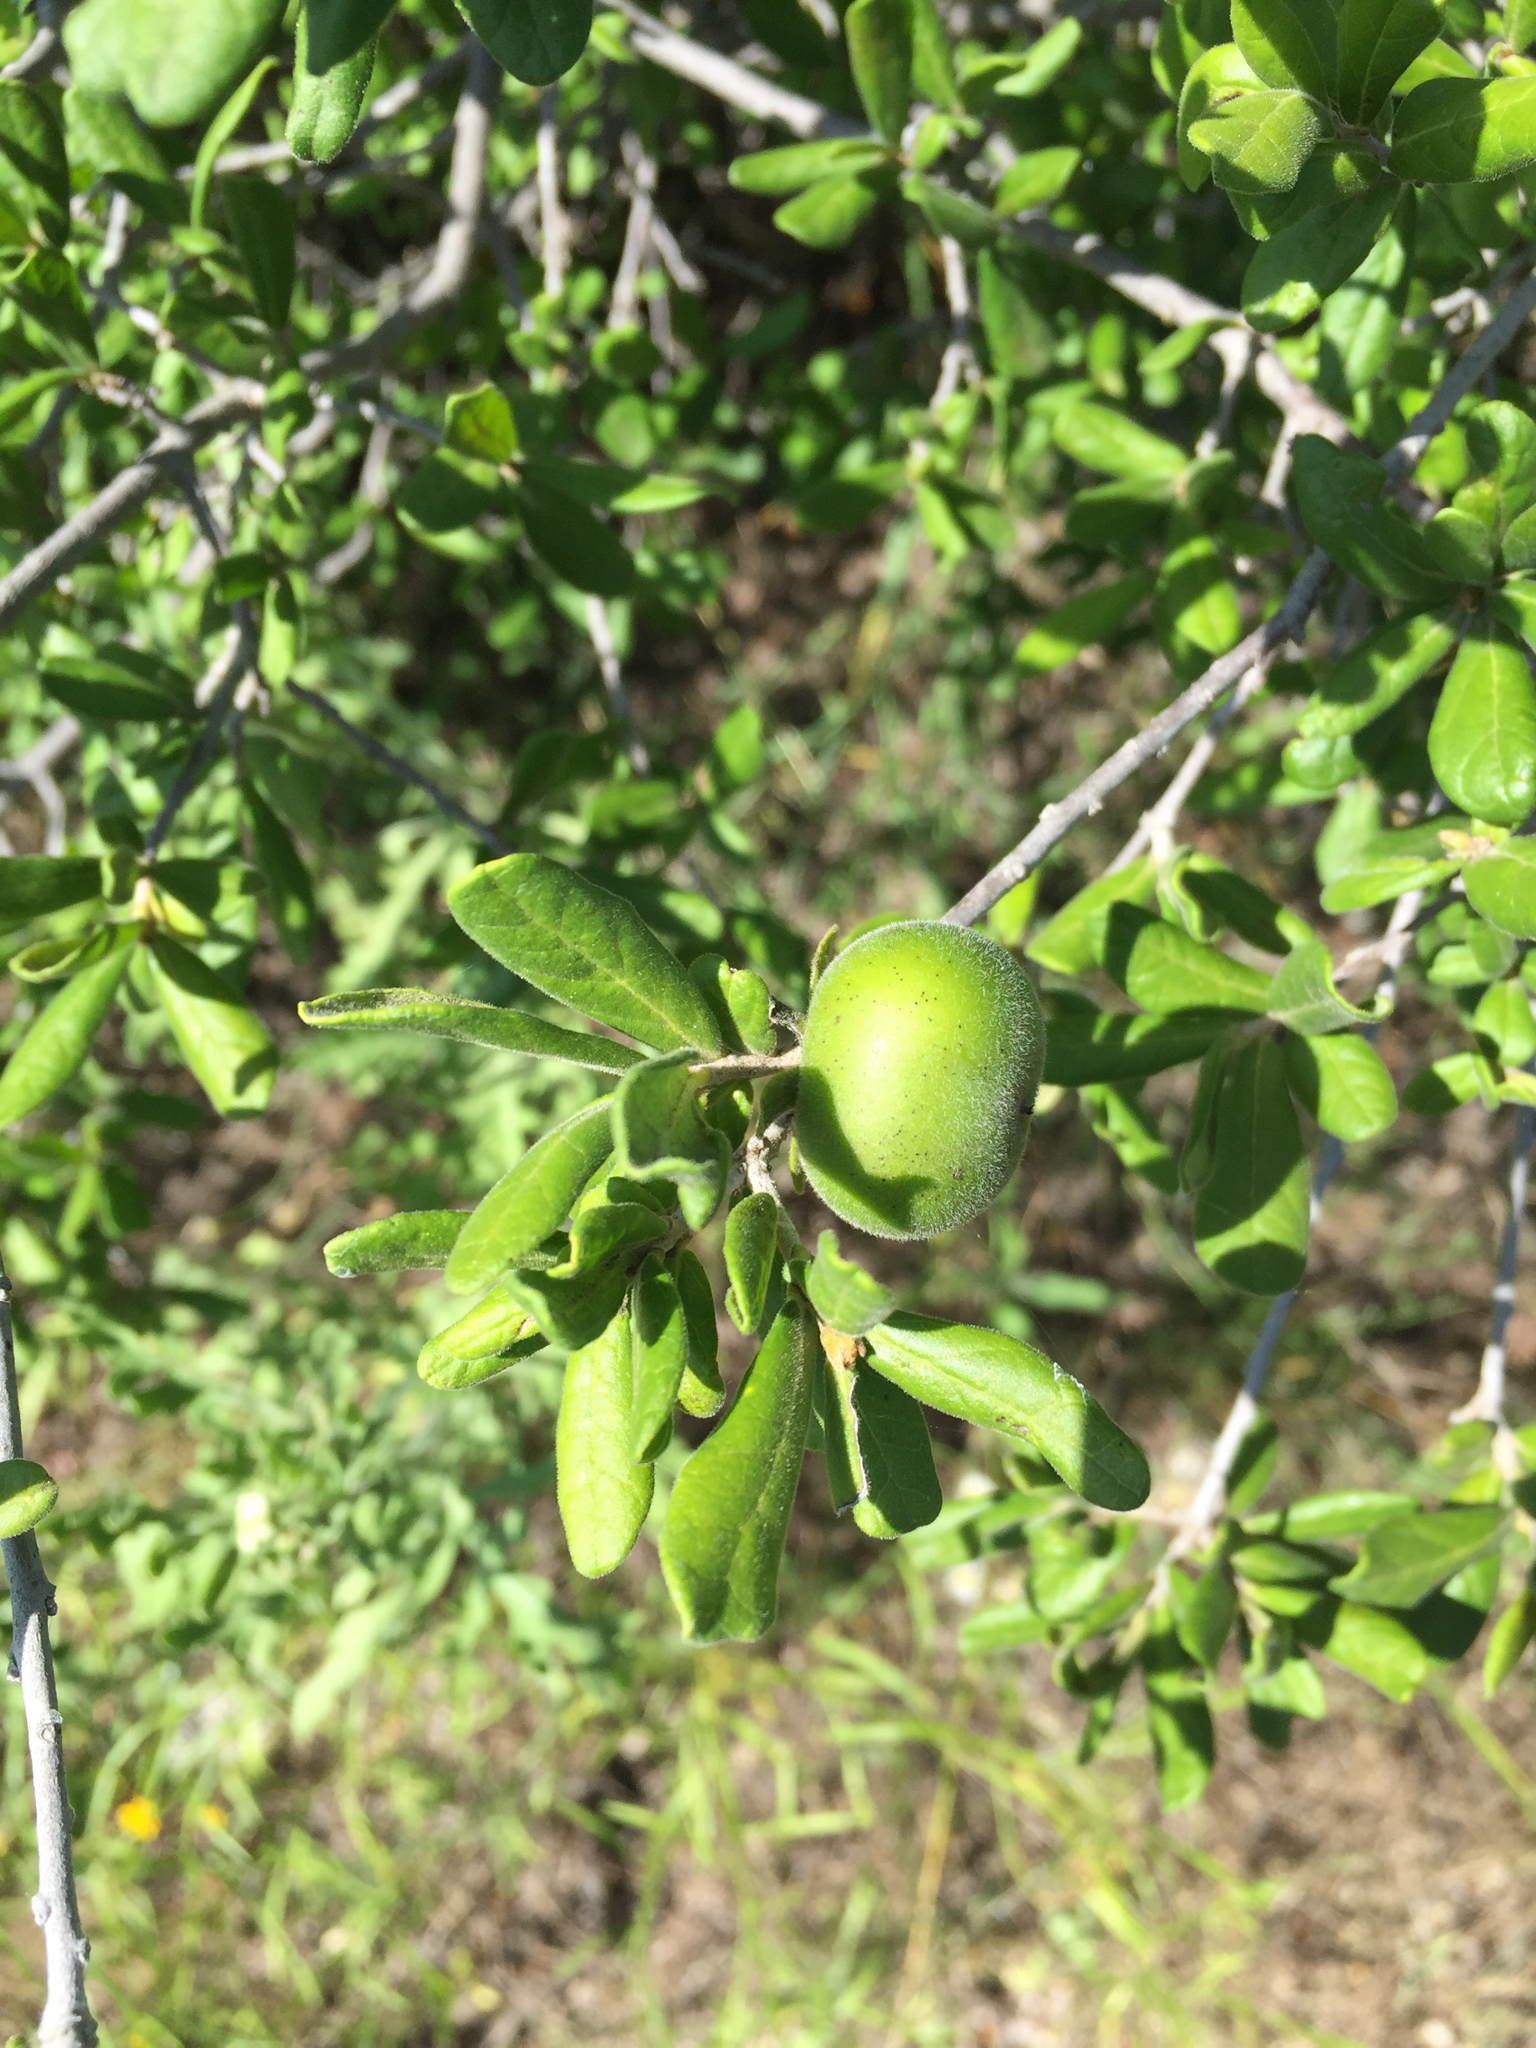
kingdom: Plantae
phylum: Tracheophyta
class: Magnoliopsida
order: Ericales
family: Ebenaceae
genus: Diospyros
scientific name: Diospyros texana
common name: Texas persimmon
